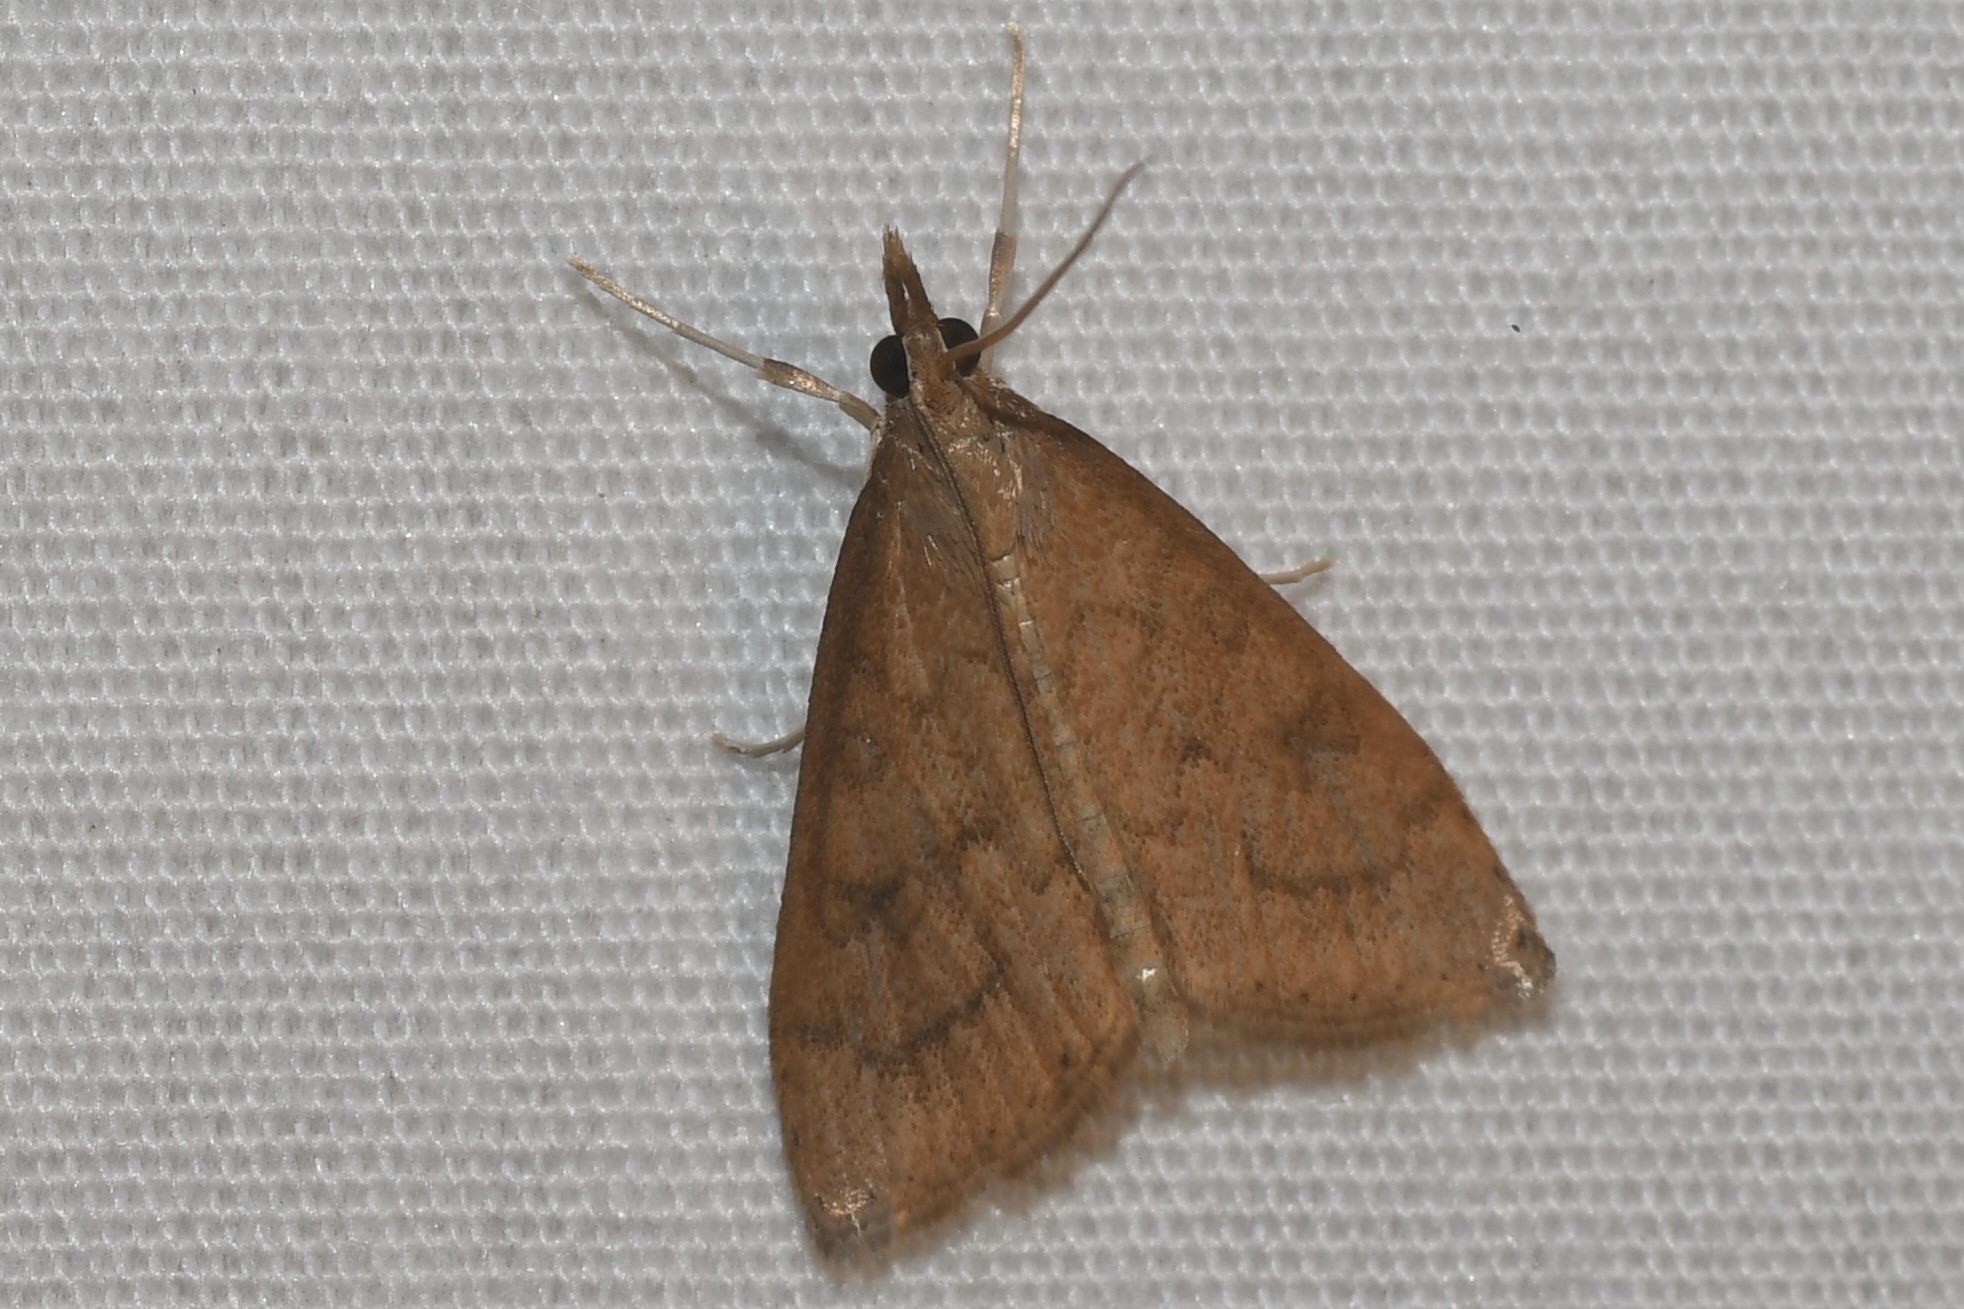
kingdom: Animalia
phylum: Arthropoda
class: Insecta
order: Lepidoptera
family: Crambidae
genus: Udea
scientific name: Udea rubigalis
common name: Celery leaftier moth
